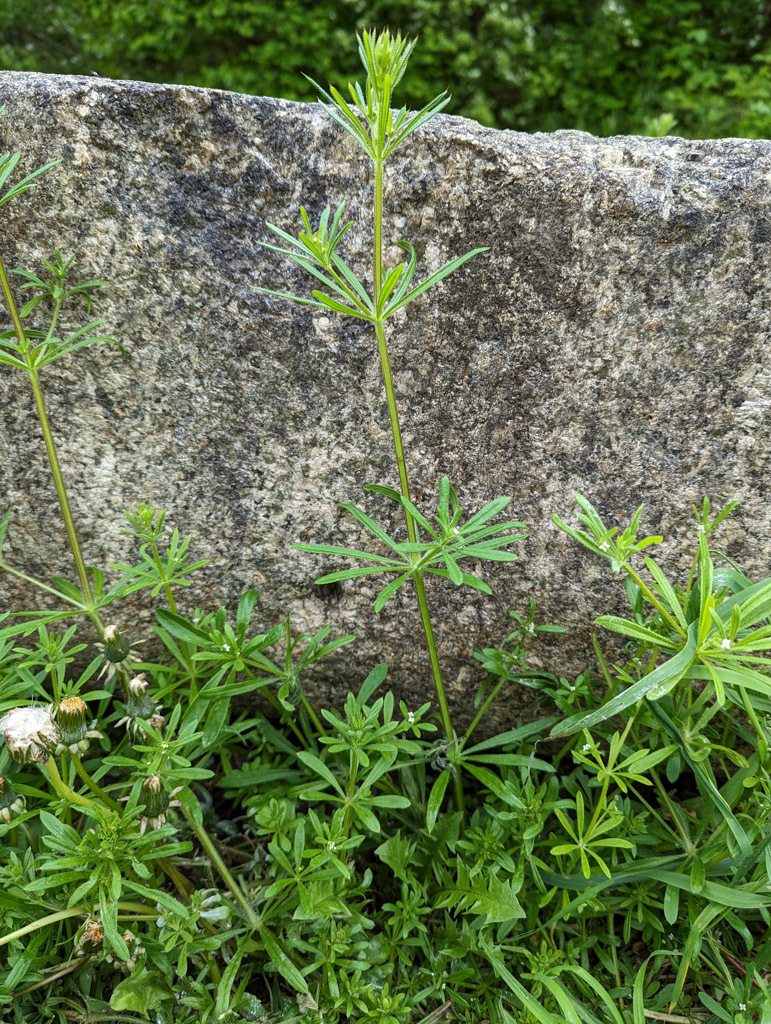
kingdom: Plantae
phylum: Tracheophyta
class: Magnoliopsida
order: Gentianales
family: Rubiaceae
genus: Galium
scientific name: Galium aparine
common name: Cleavers
